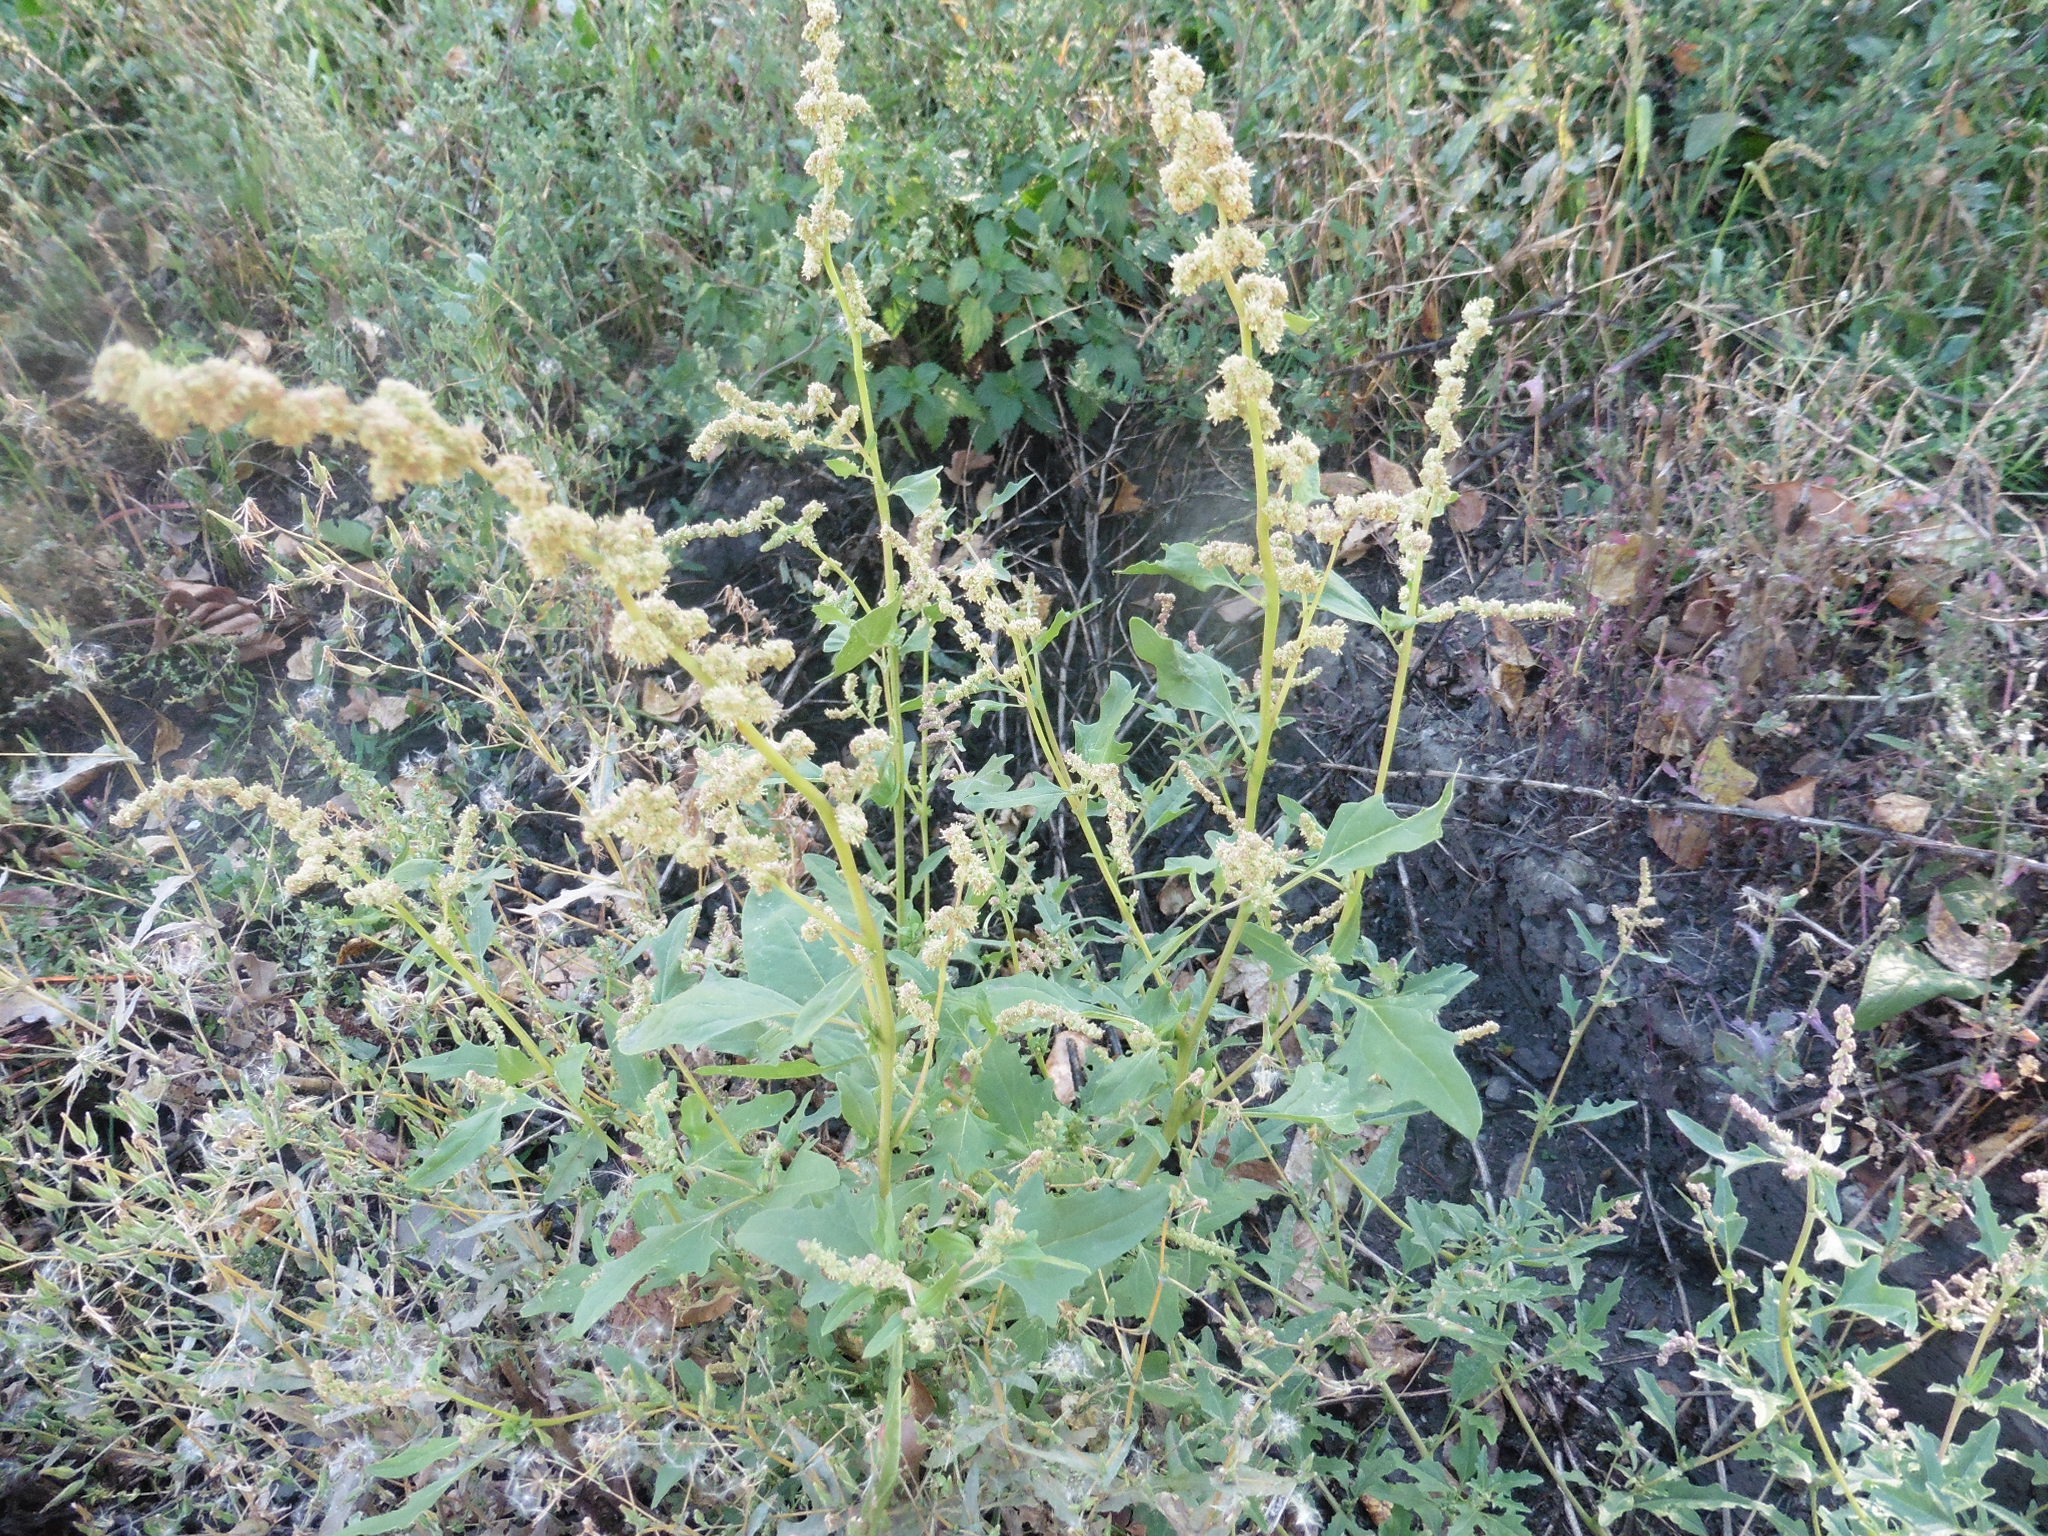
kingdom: Plantae
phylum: Tracheophyta
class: Magnoliopsida
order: Caryophyllales
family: Amaranthaceae
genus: Atriplex
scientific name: Atriplex tatarica
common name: Tatarian orache
